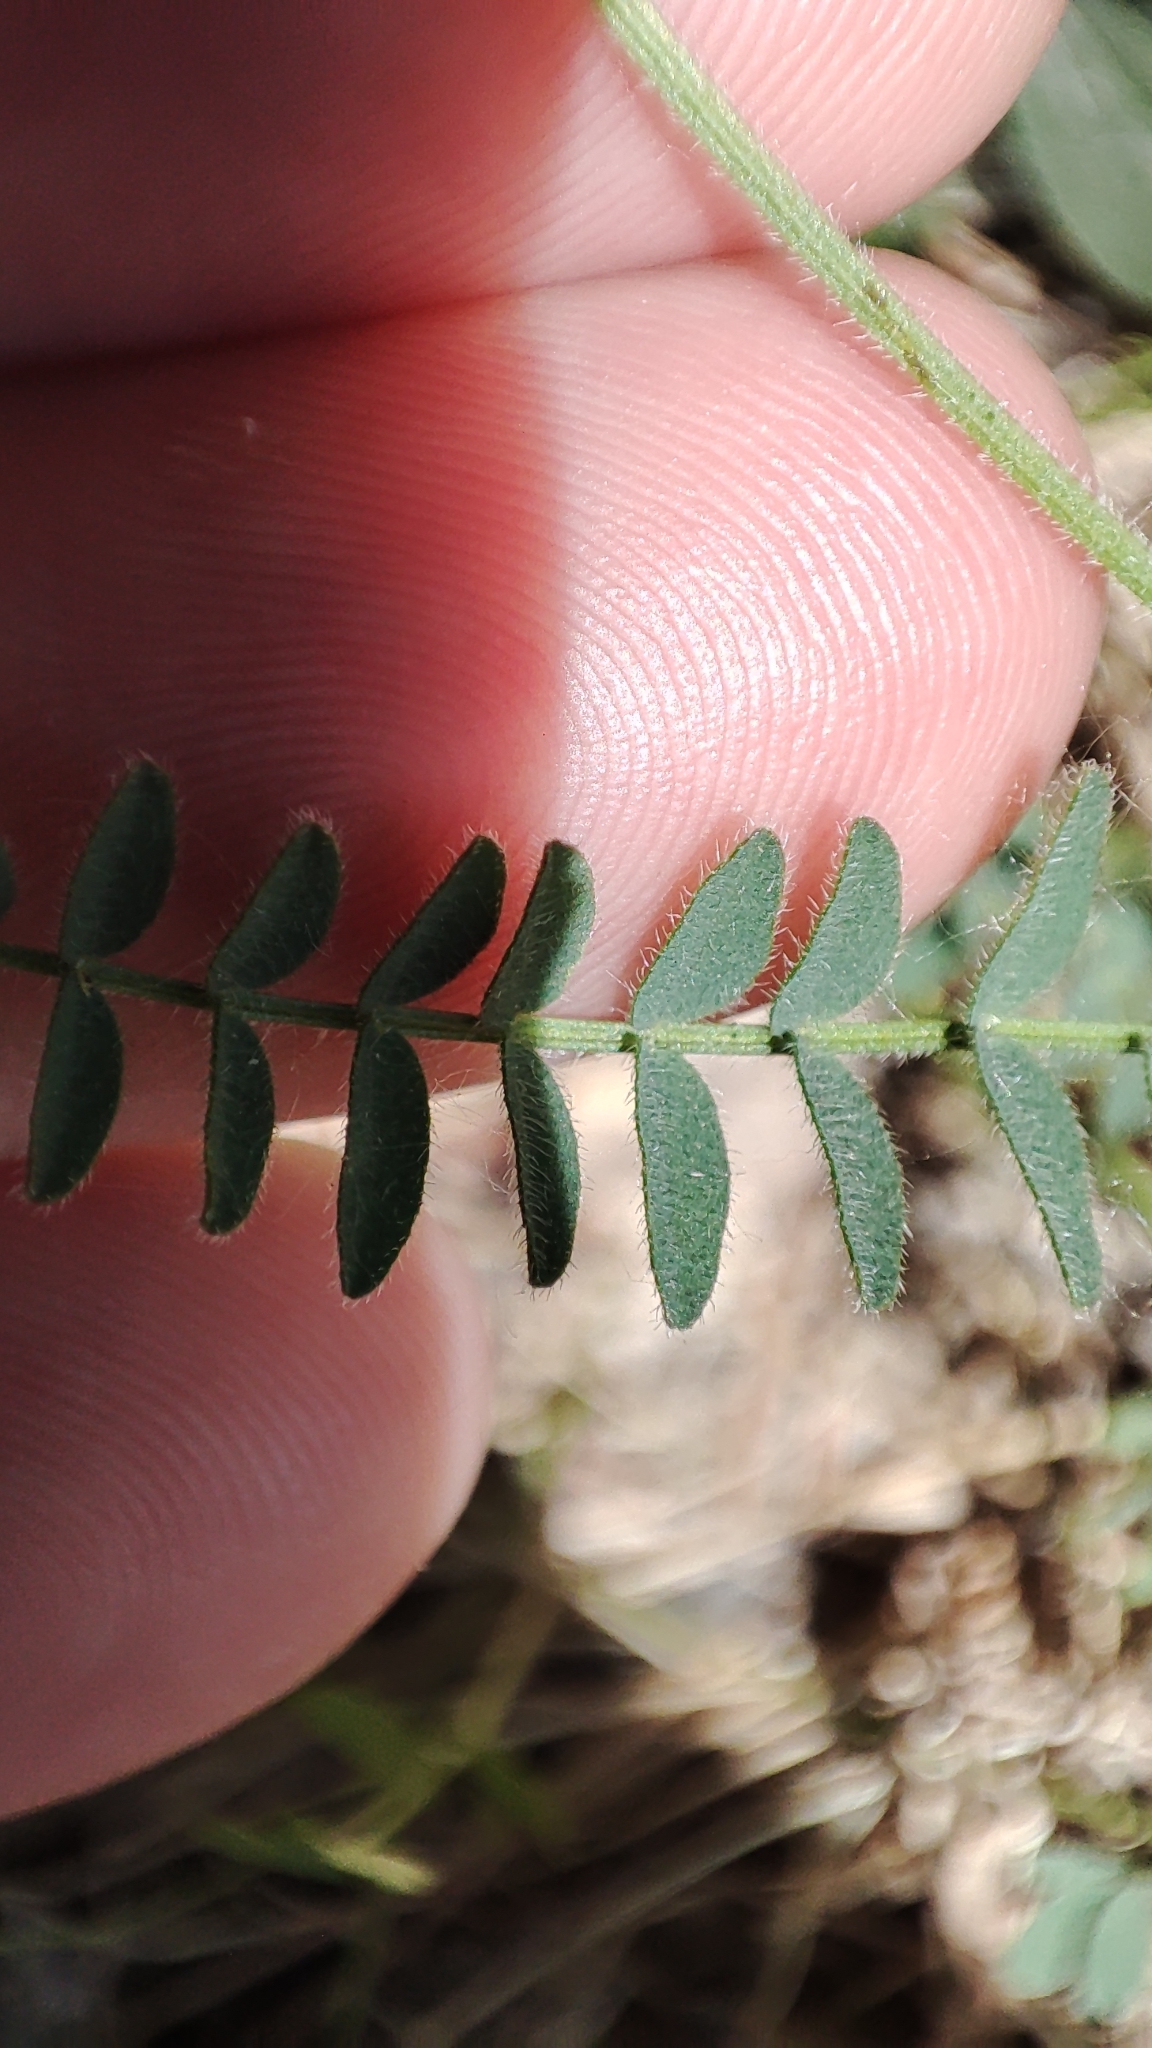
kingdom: Plantae
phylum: Tracheophyta
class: Magnoliopsida
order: Fabales
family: Fabaceae
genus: Astragalus
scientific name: Astragalus danicus
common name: Purple milk-vetch
